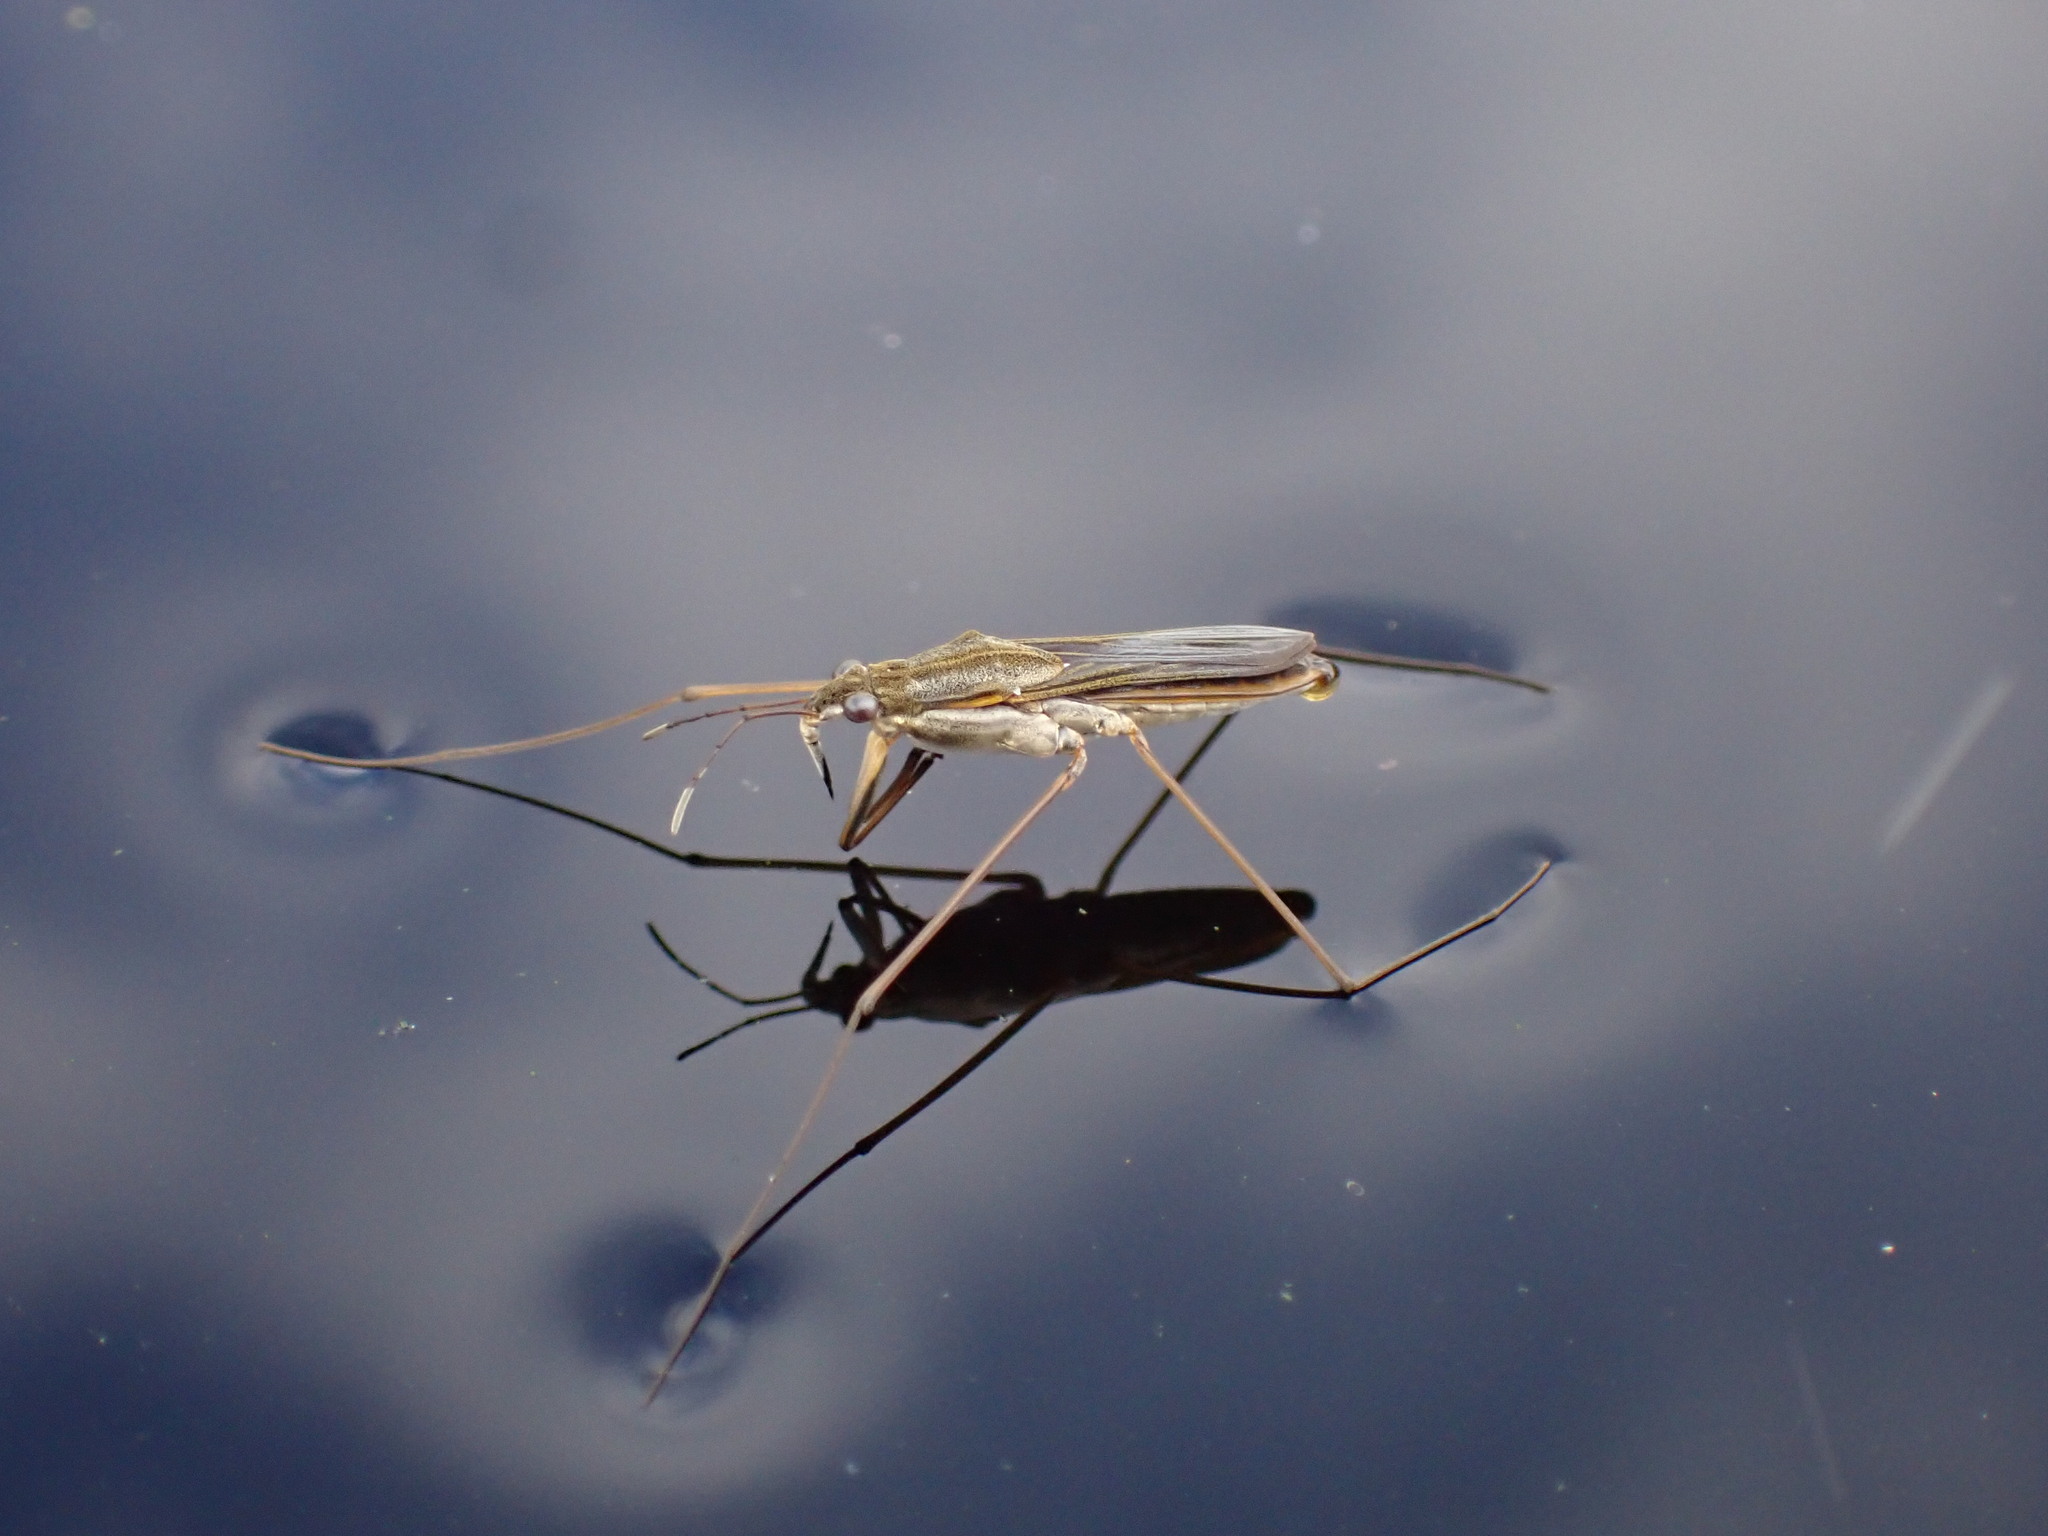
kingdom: Animalia
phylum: Arthropoda
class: Insecta
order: Hemiptera
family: Gerridae
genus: Gerris
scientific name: Gerris
